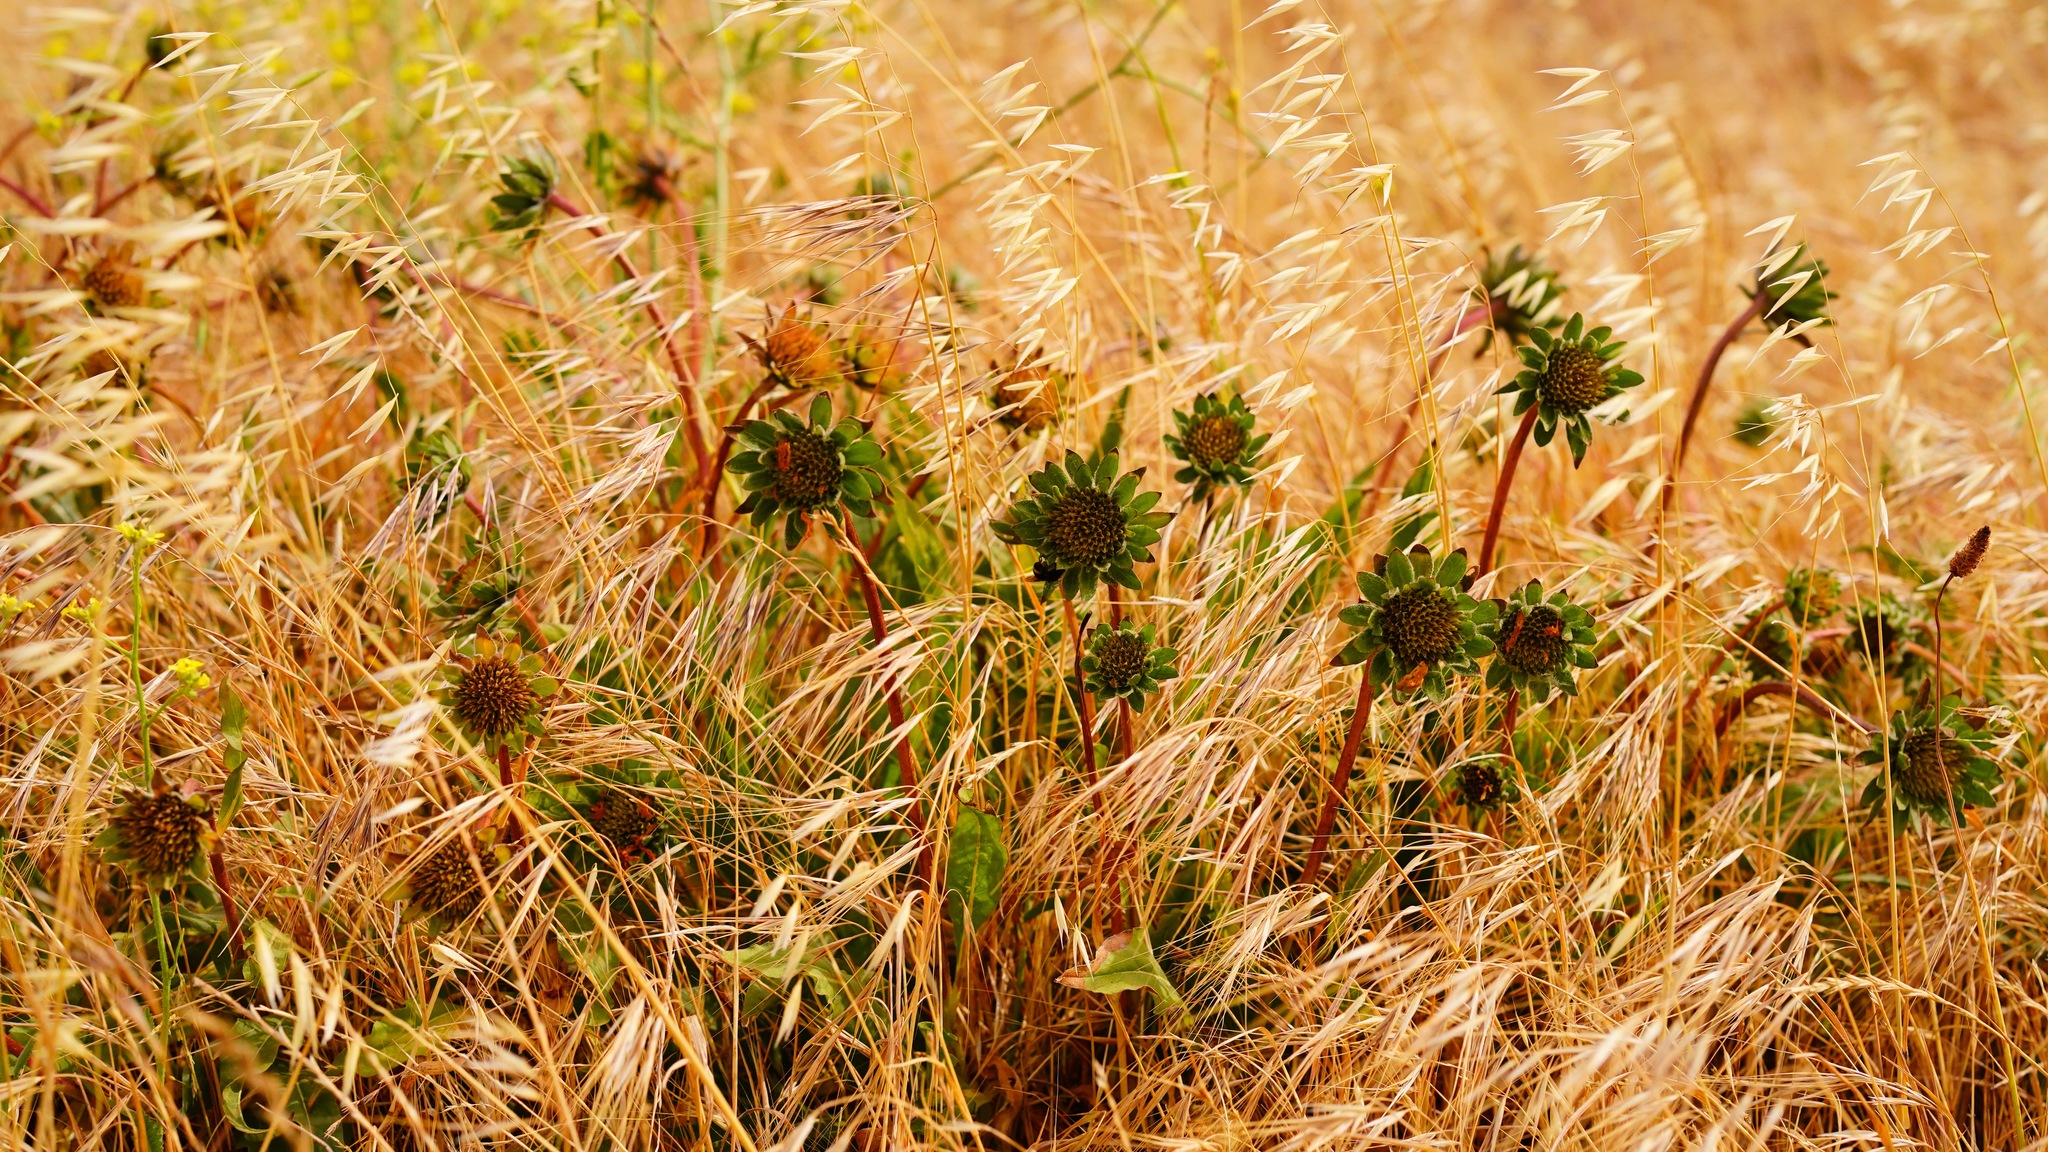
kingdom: Plantae
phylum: Tracheophyta
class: Magnoliopsida
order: Asterales
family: Asteraceae
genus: Wyethia
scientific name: Wyethia angustifolia
